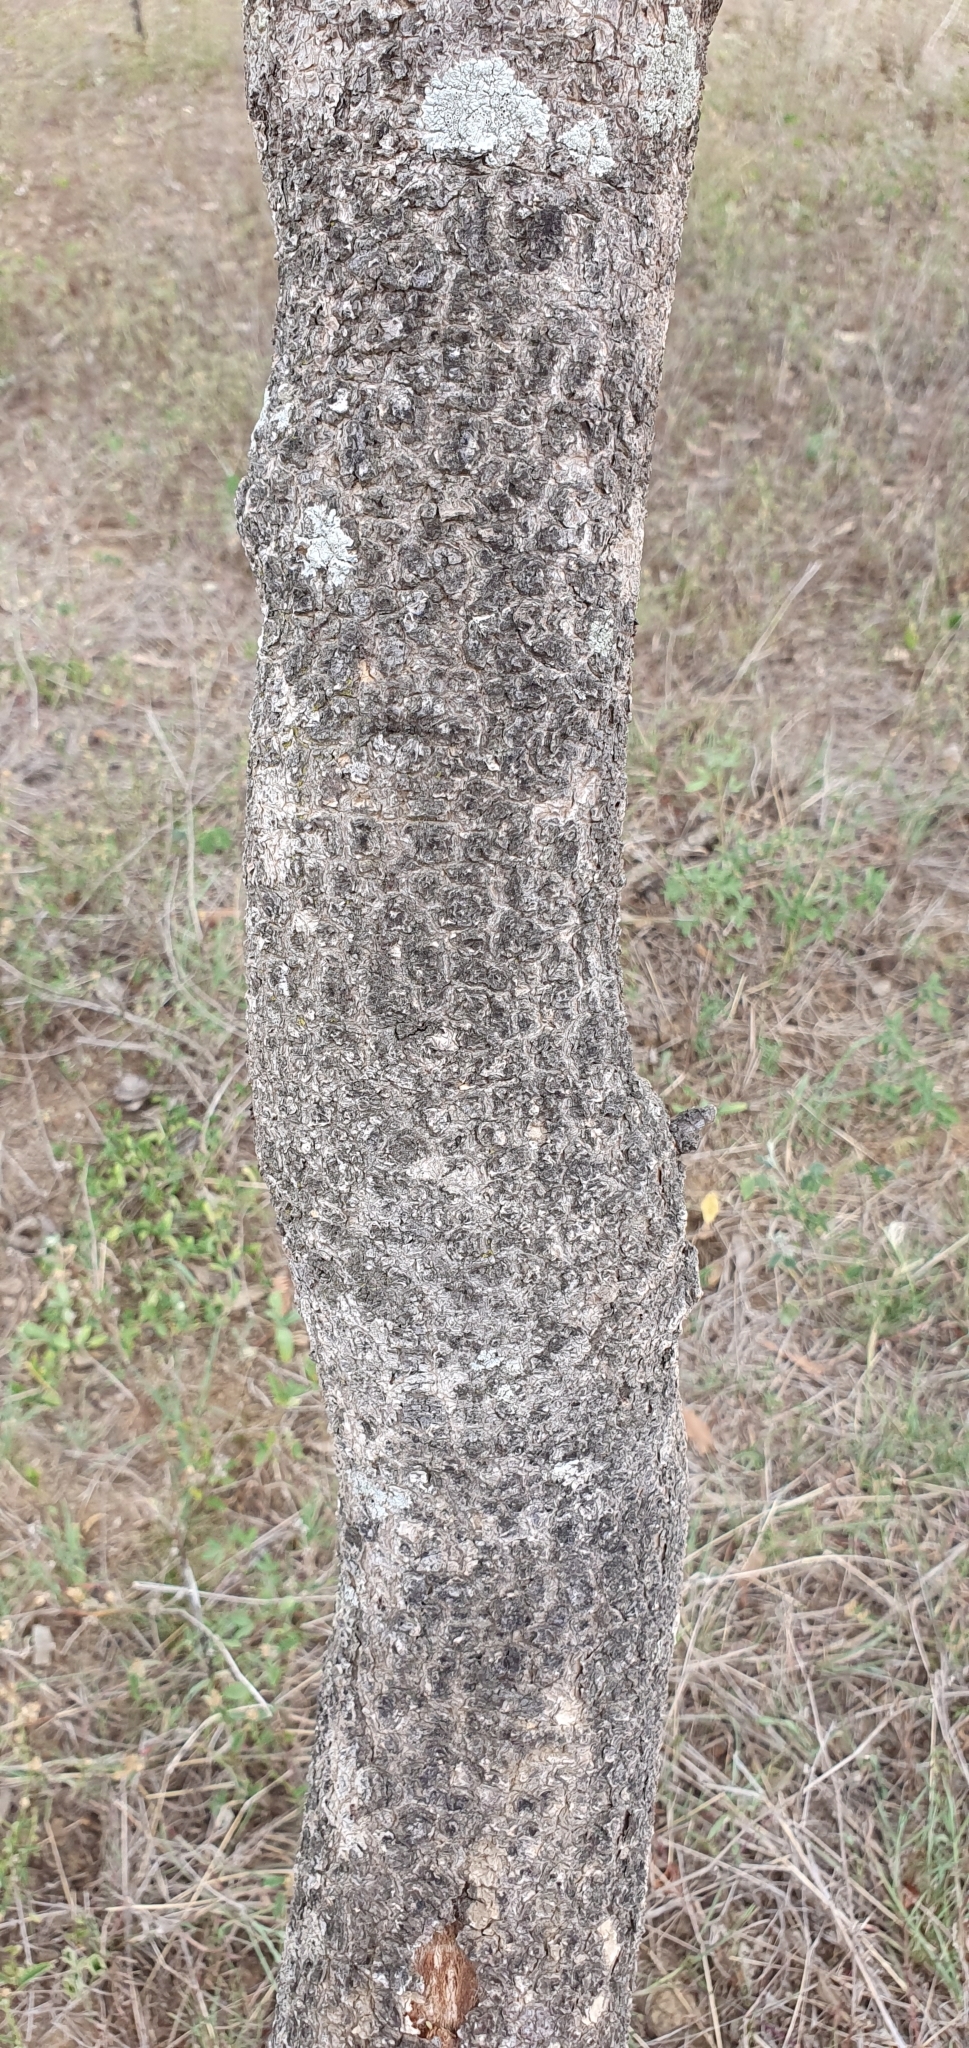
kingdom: Plantae
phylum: Tracheophyta
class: Magnoliopsida
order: Fabales
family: Fabaceae
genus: Vachellia
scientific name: Vachellia bidwillii
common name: Corkwood wattle
